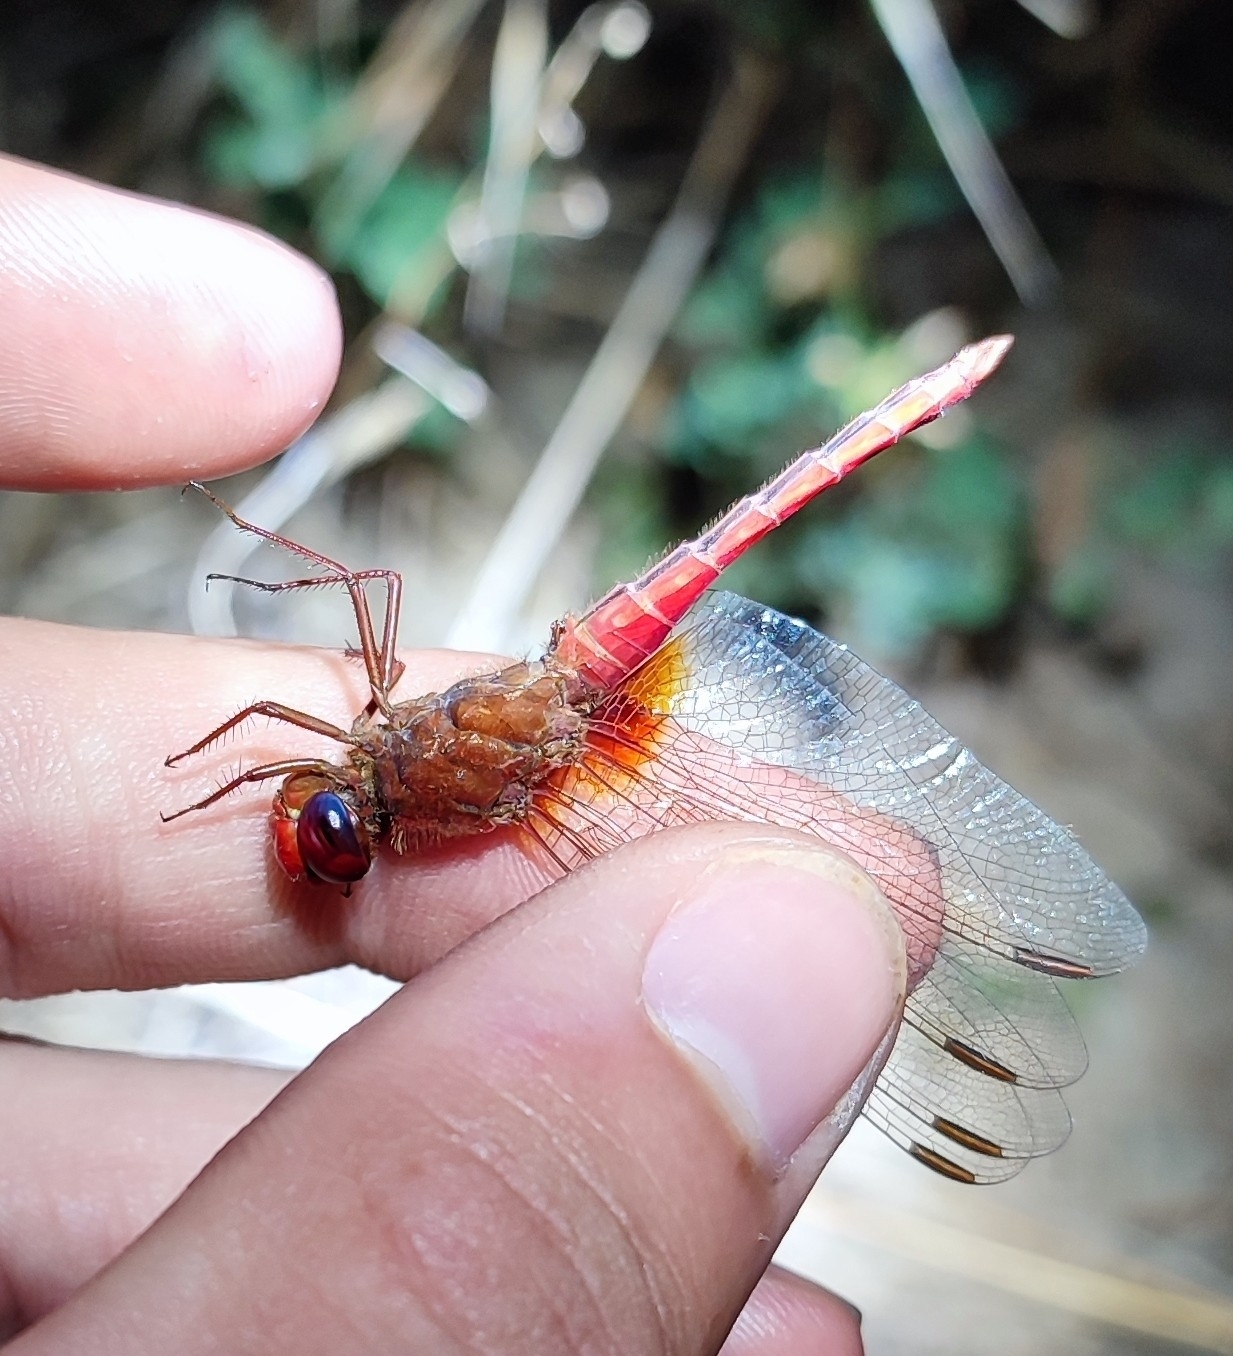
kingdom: Animalia
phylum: Arthropoda
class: Insecta
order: Odonata
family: Libellulidae
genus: Crocothemis
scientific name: Crocothemis erythraea
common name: Scarlet dragonfly
